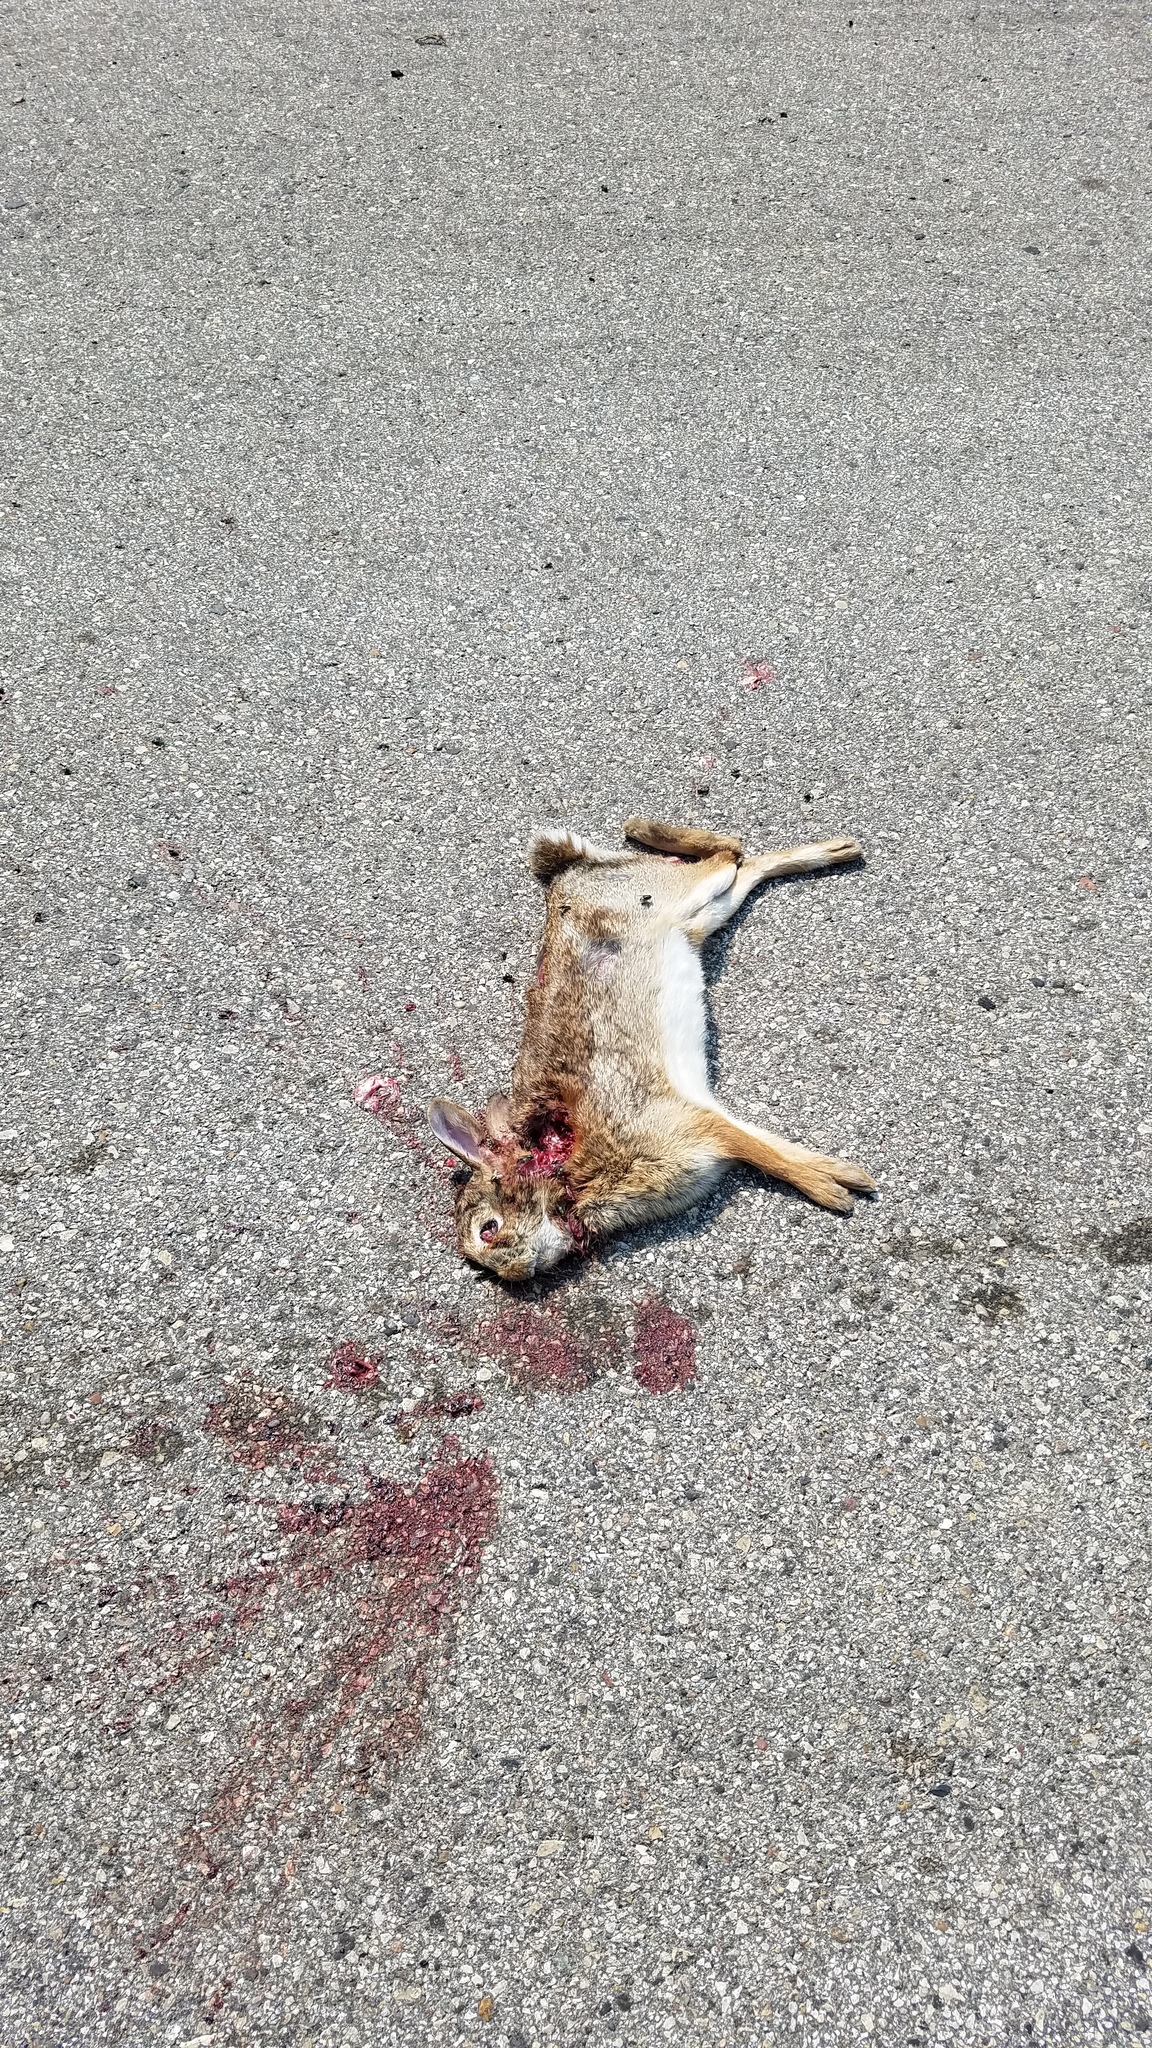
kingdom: Animalia
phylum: Chordata
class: Mammalia
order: Lagomorpha
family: Leporidae
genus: Sylvilagus
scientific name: Sylvilagus floridanus
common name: Eastern cottontail
